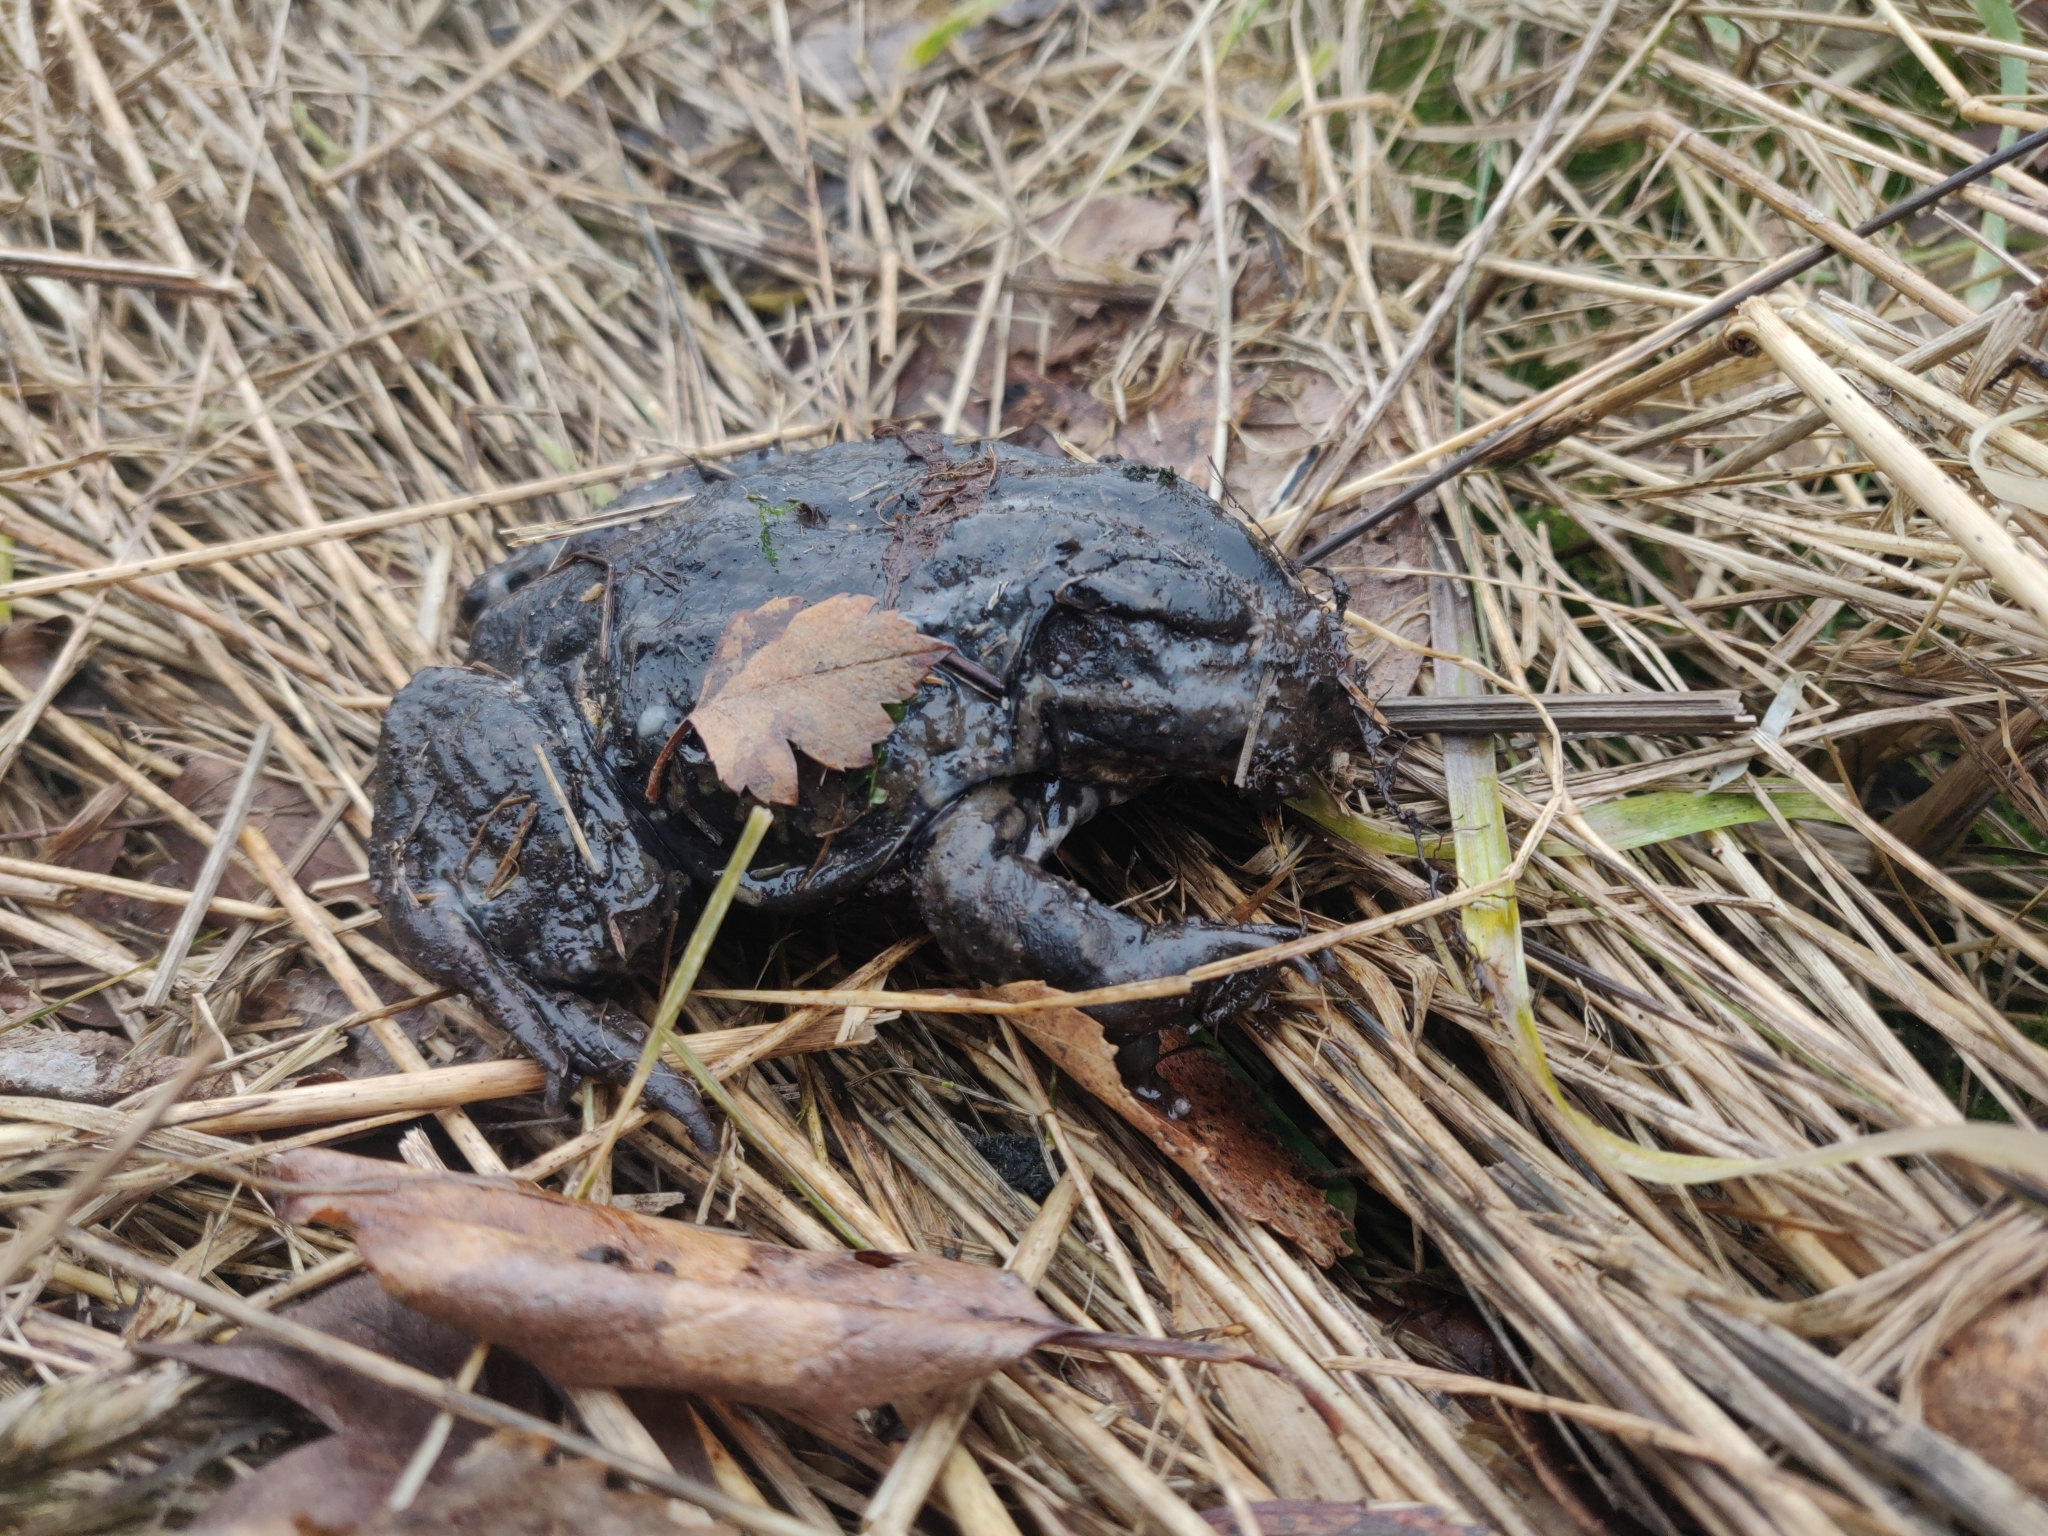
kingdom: Animalia
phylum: Chordata
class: Amphibia
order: Anura
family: Bufonidae
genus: Bufo
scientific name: Bufo bufo
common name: Common toad
